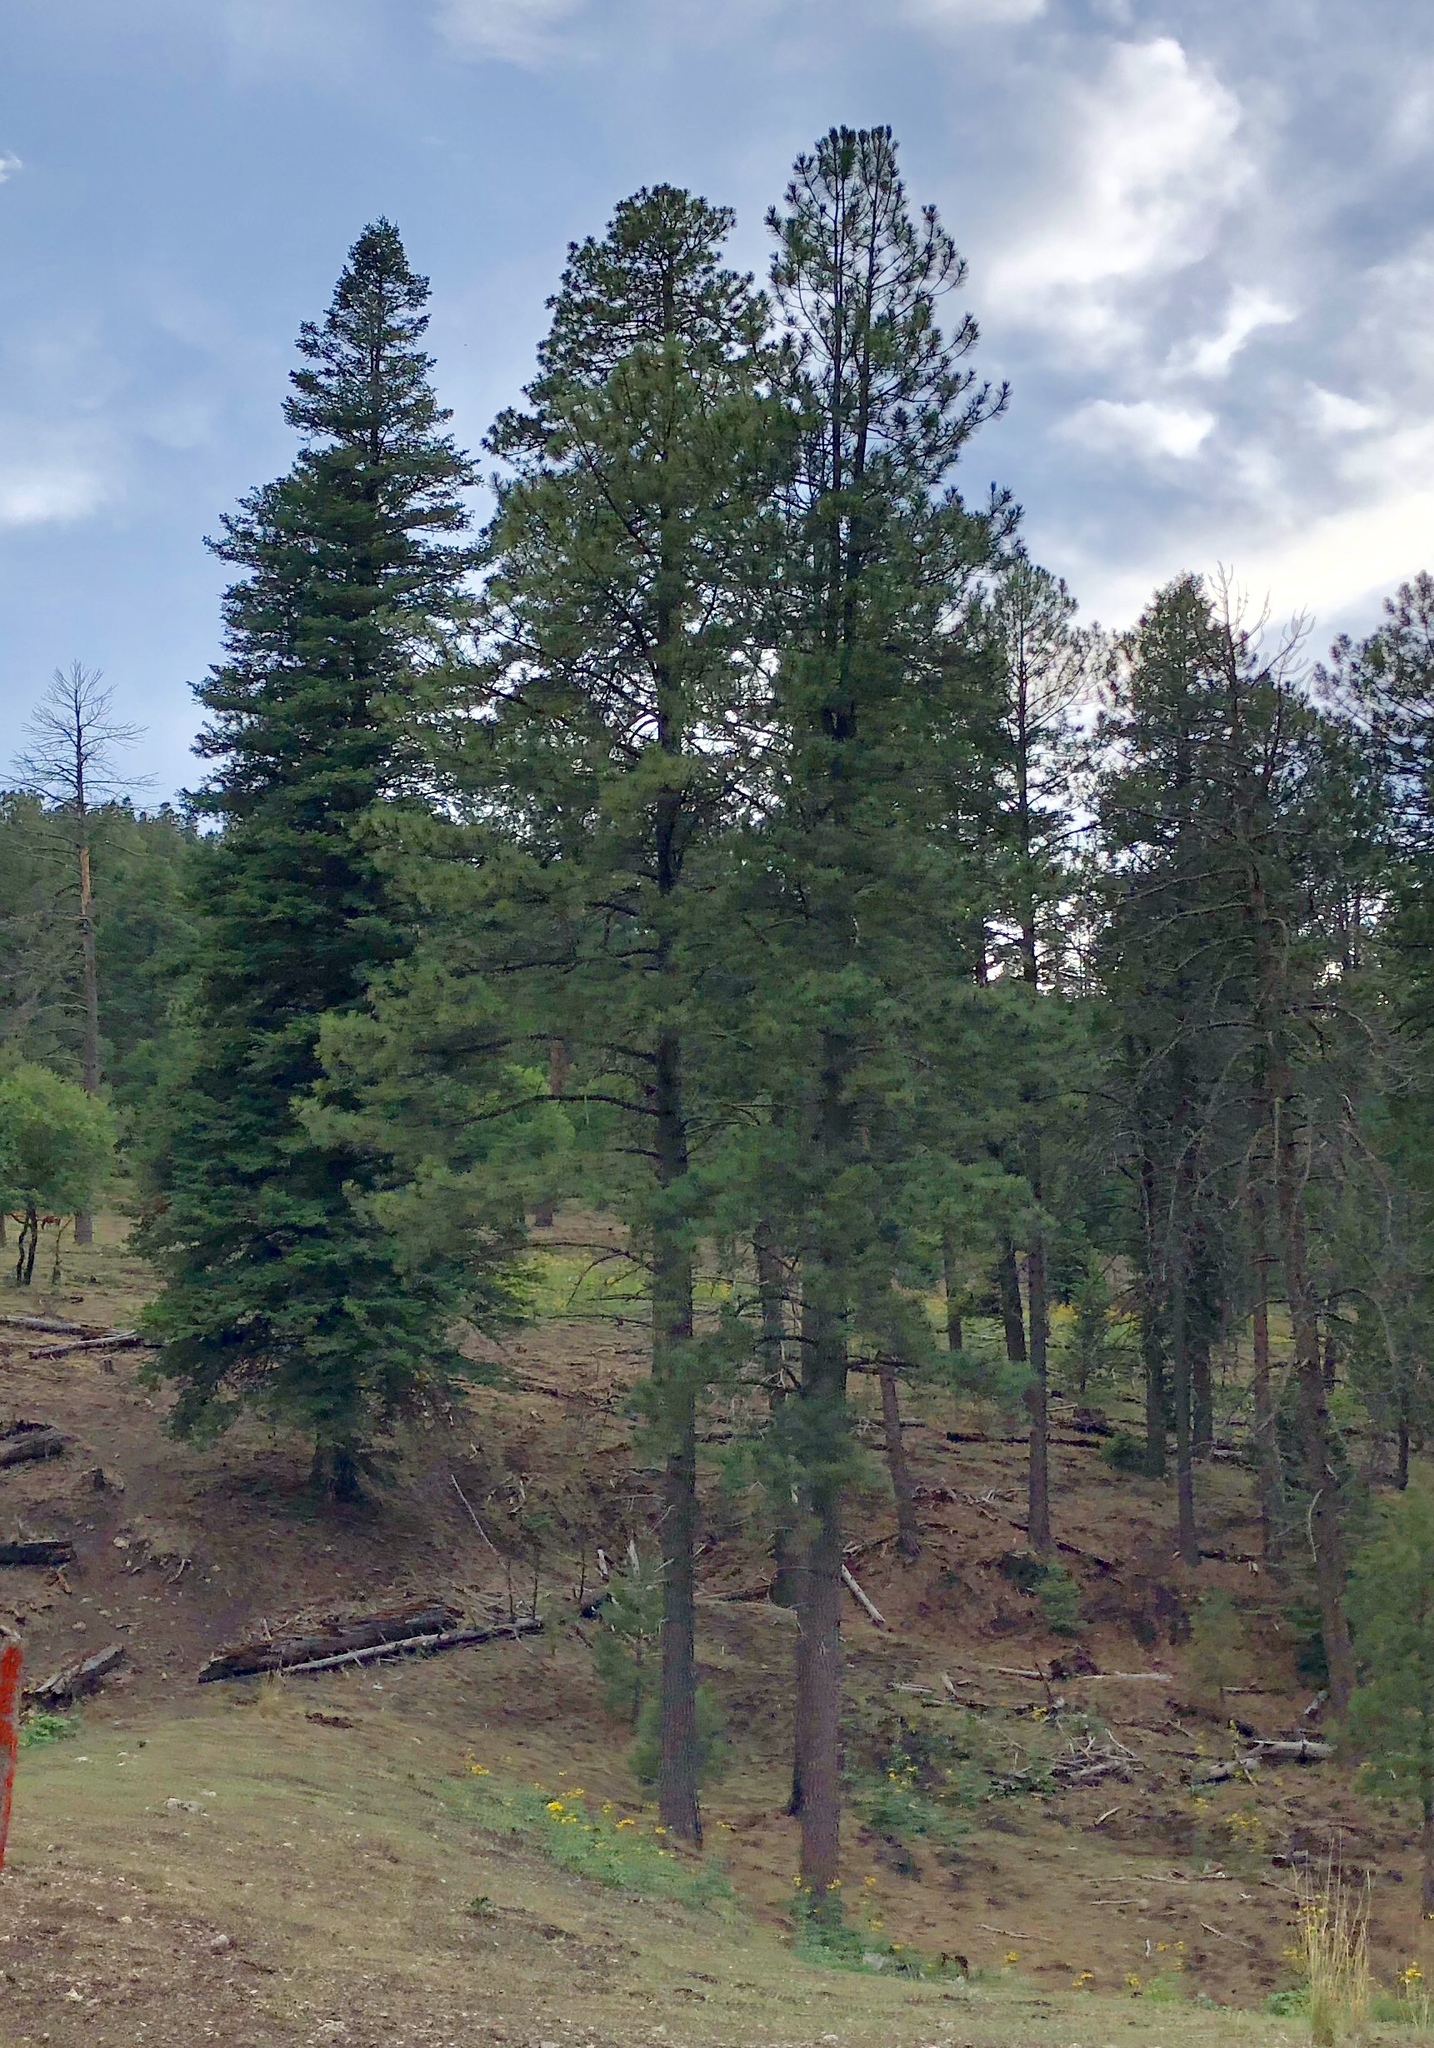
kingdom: Plantae
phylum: Tracheophyta
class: Pinopsida
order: Pinales
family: Pinaceae
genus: Pinus
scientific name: Pinus ponderosa
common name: Western yellow-pine
